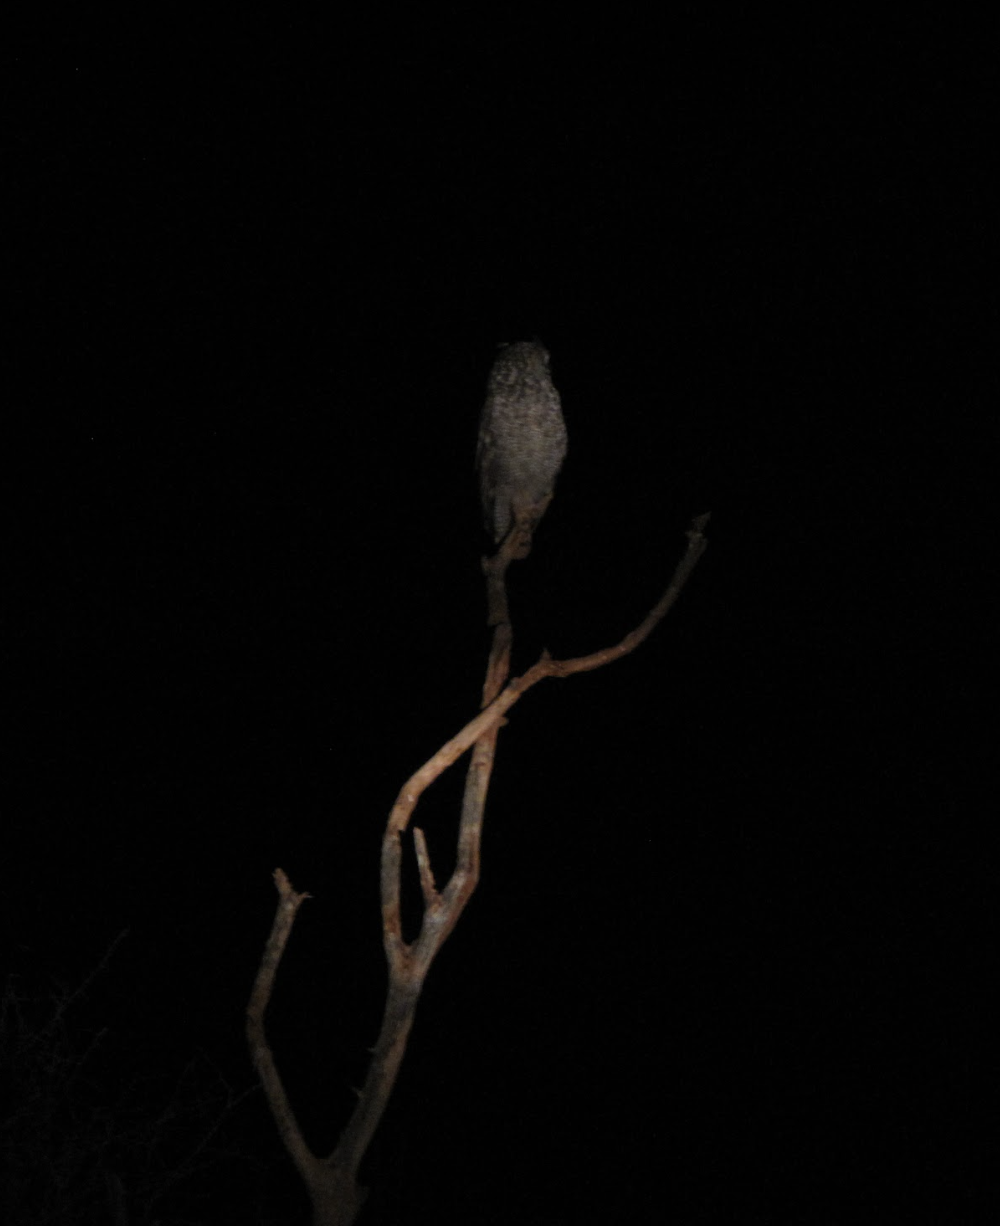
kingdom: Animalia
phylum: Chordata
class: Aves
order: Strigiformes
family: Strigidae
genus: Bubo
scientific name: Bubo africanus
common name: Spotted eagle-owl
